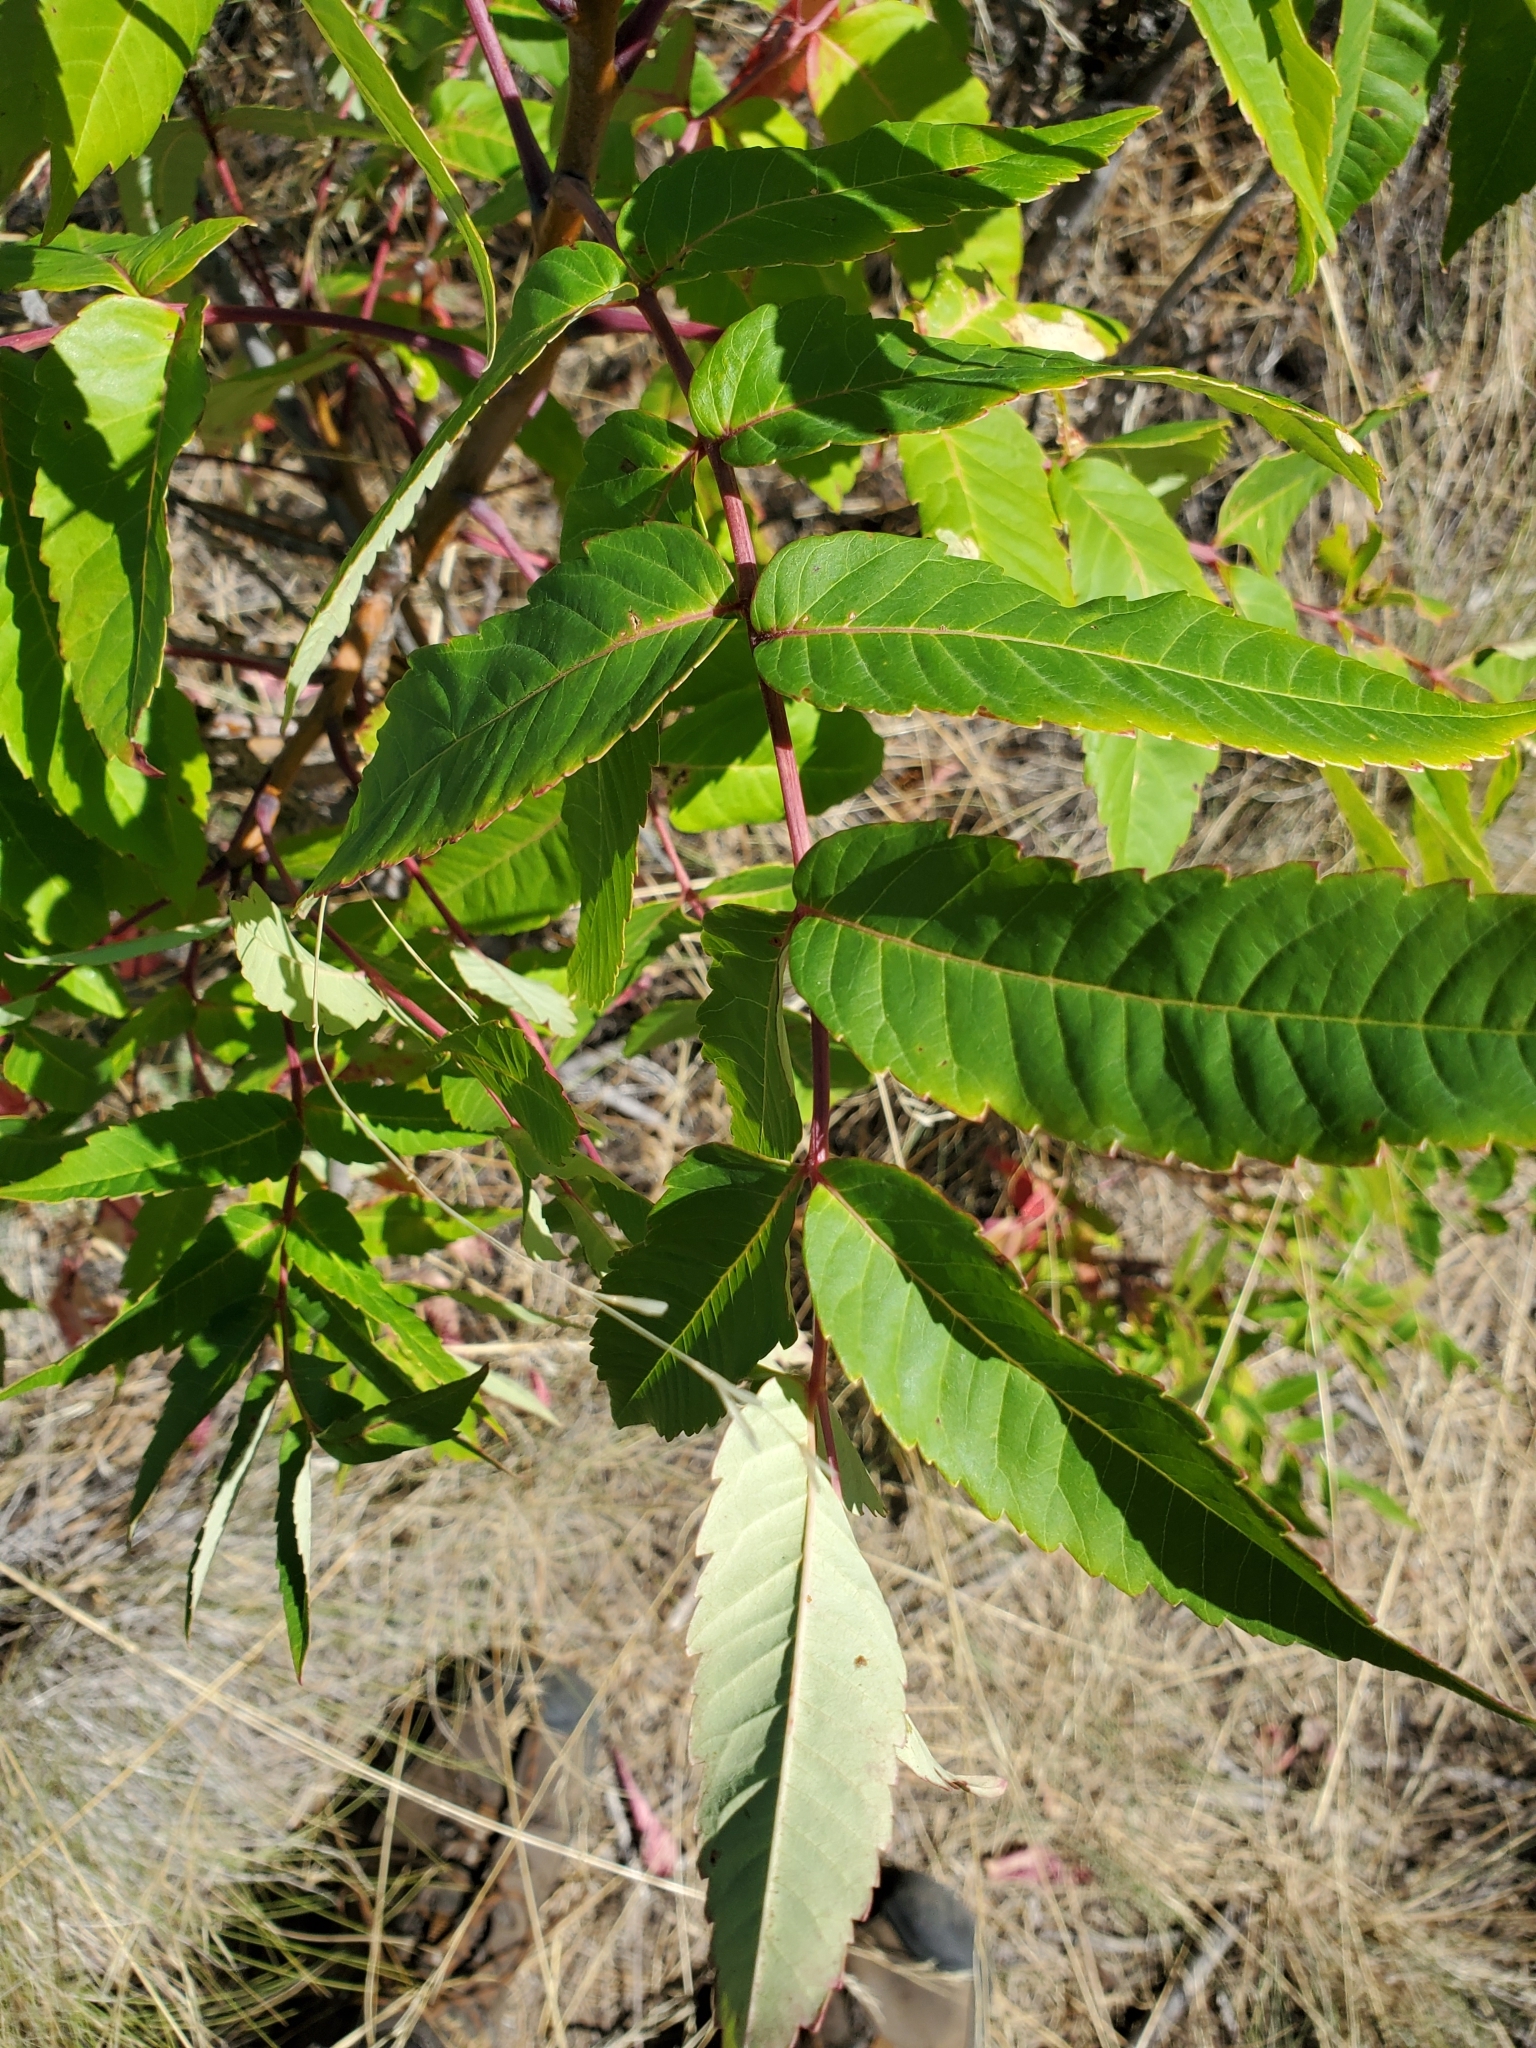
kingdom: Plantae
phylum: Tracheophyta
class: Magnoliopsida
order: Sapindales
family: Anacardiaceae
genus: Rhus
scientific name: Rhus glabra
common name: Scarlet sumac
